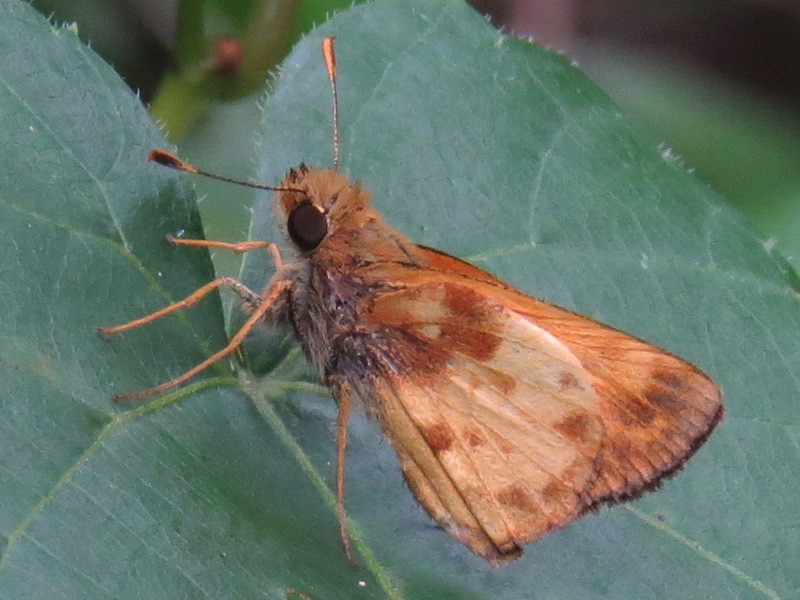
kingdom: Animalia
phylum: Arthropoda
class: Insecta
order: Lepidoptera
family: Hesperiidae
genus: Lon
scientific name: Lon zabulon
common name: Zabulon skipper
